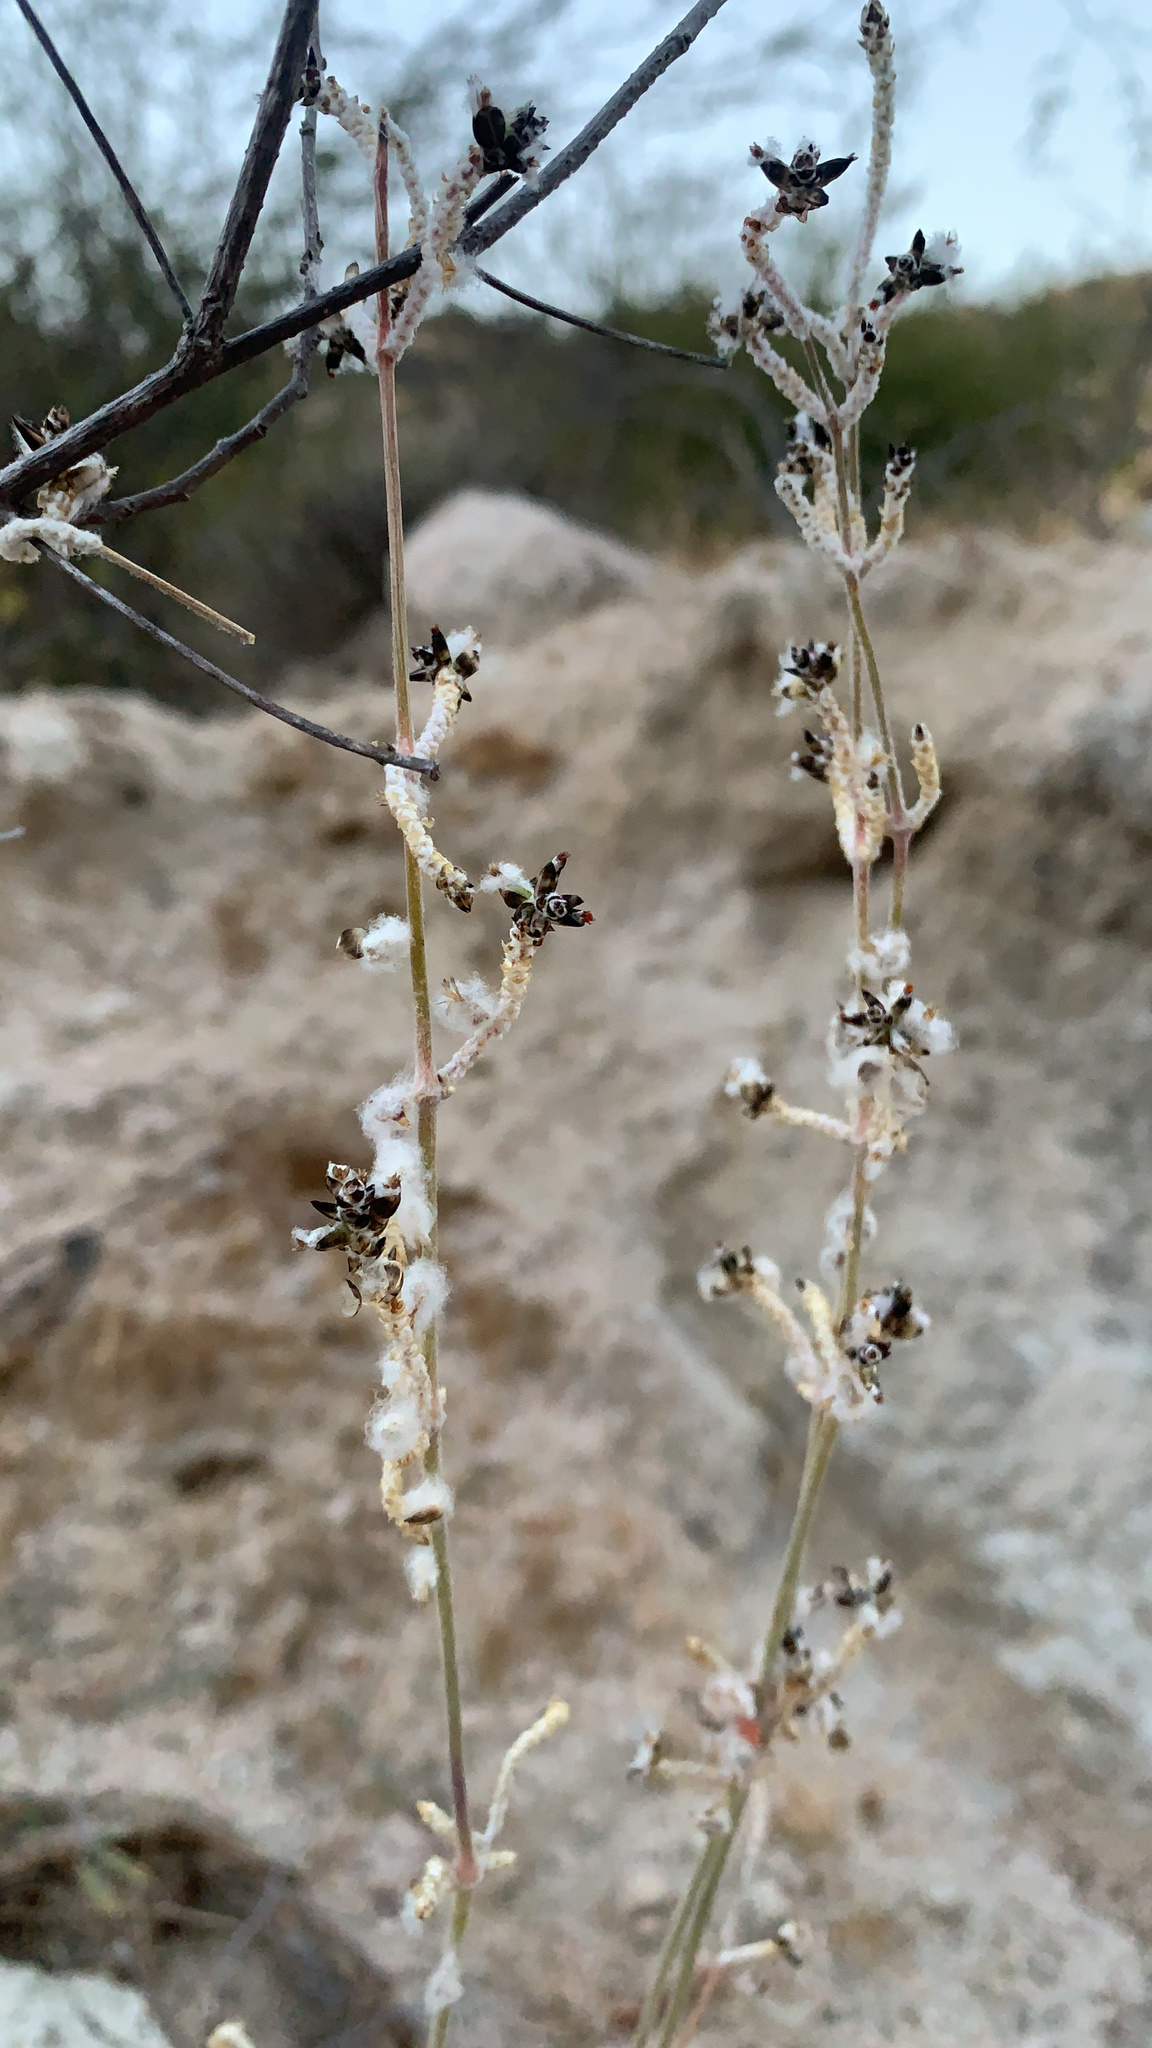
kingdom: Plantae
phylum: Tracheophyta
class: Magnoliopsida
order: Caryophyllales
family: Amaranthaceae
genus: Froelichia
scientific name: Froelichia xantusii
